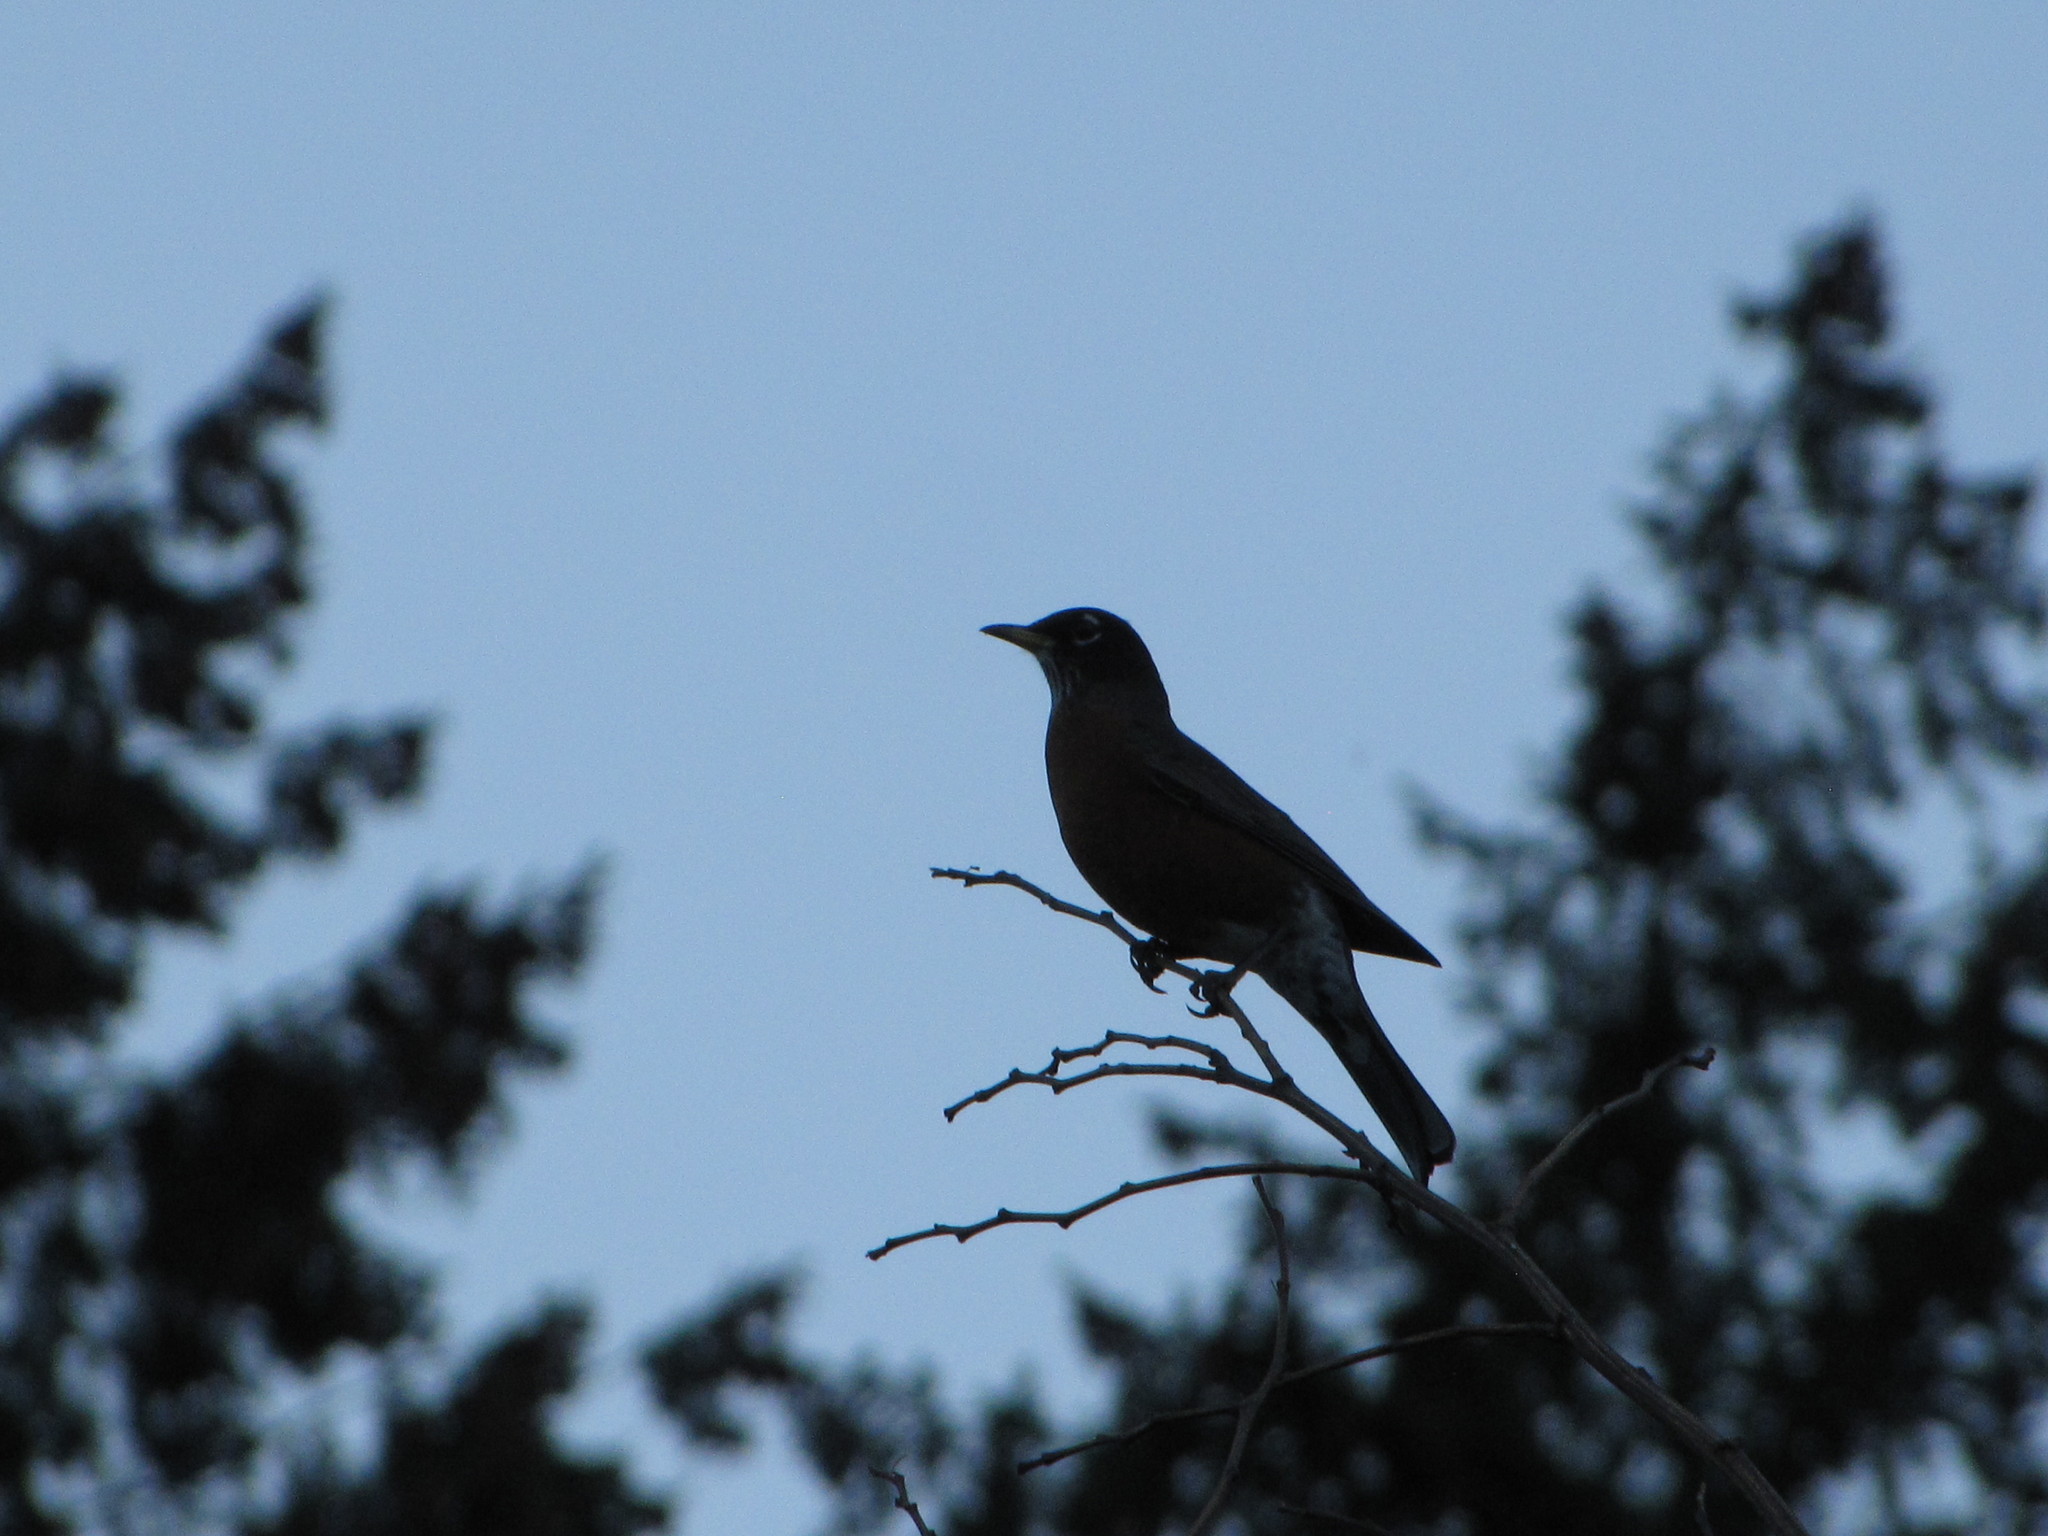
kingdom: Animalia
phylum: Chordata
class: Aves
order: Passeriformes
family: Turdidae
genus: Turdus
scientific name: Turdus migratorius
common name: American robin
